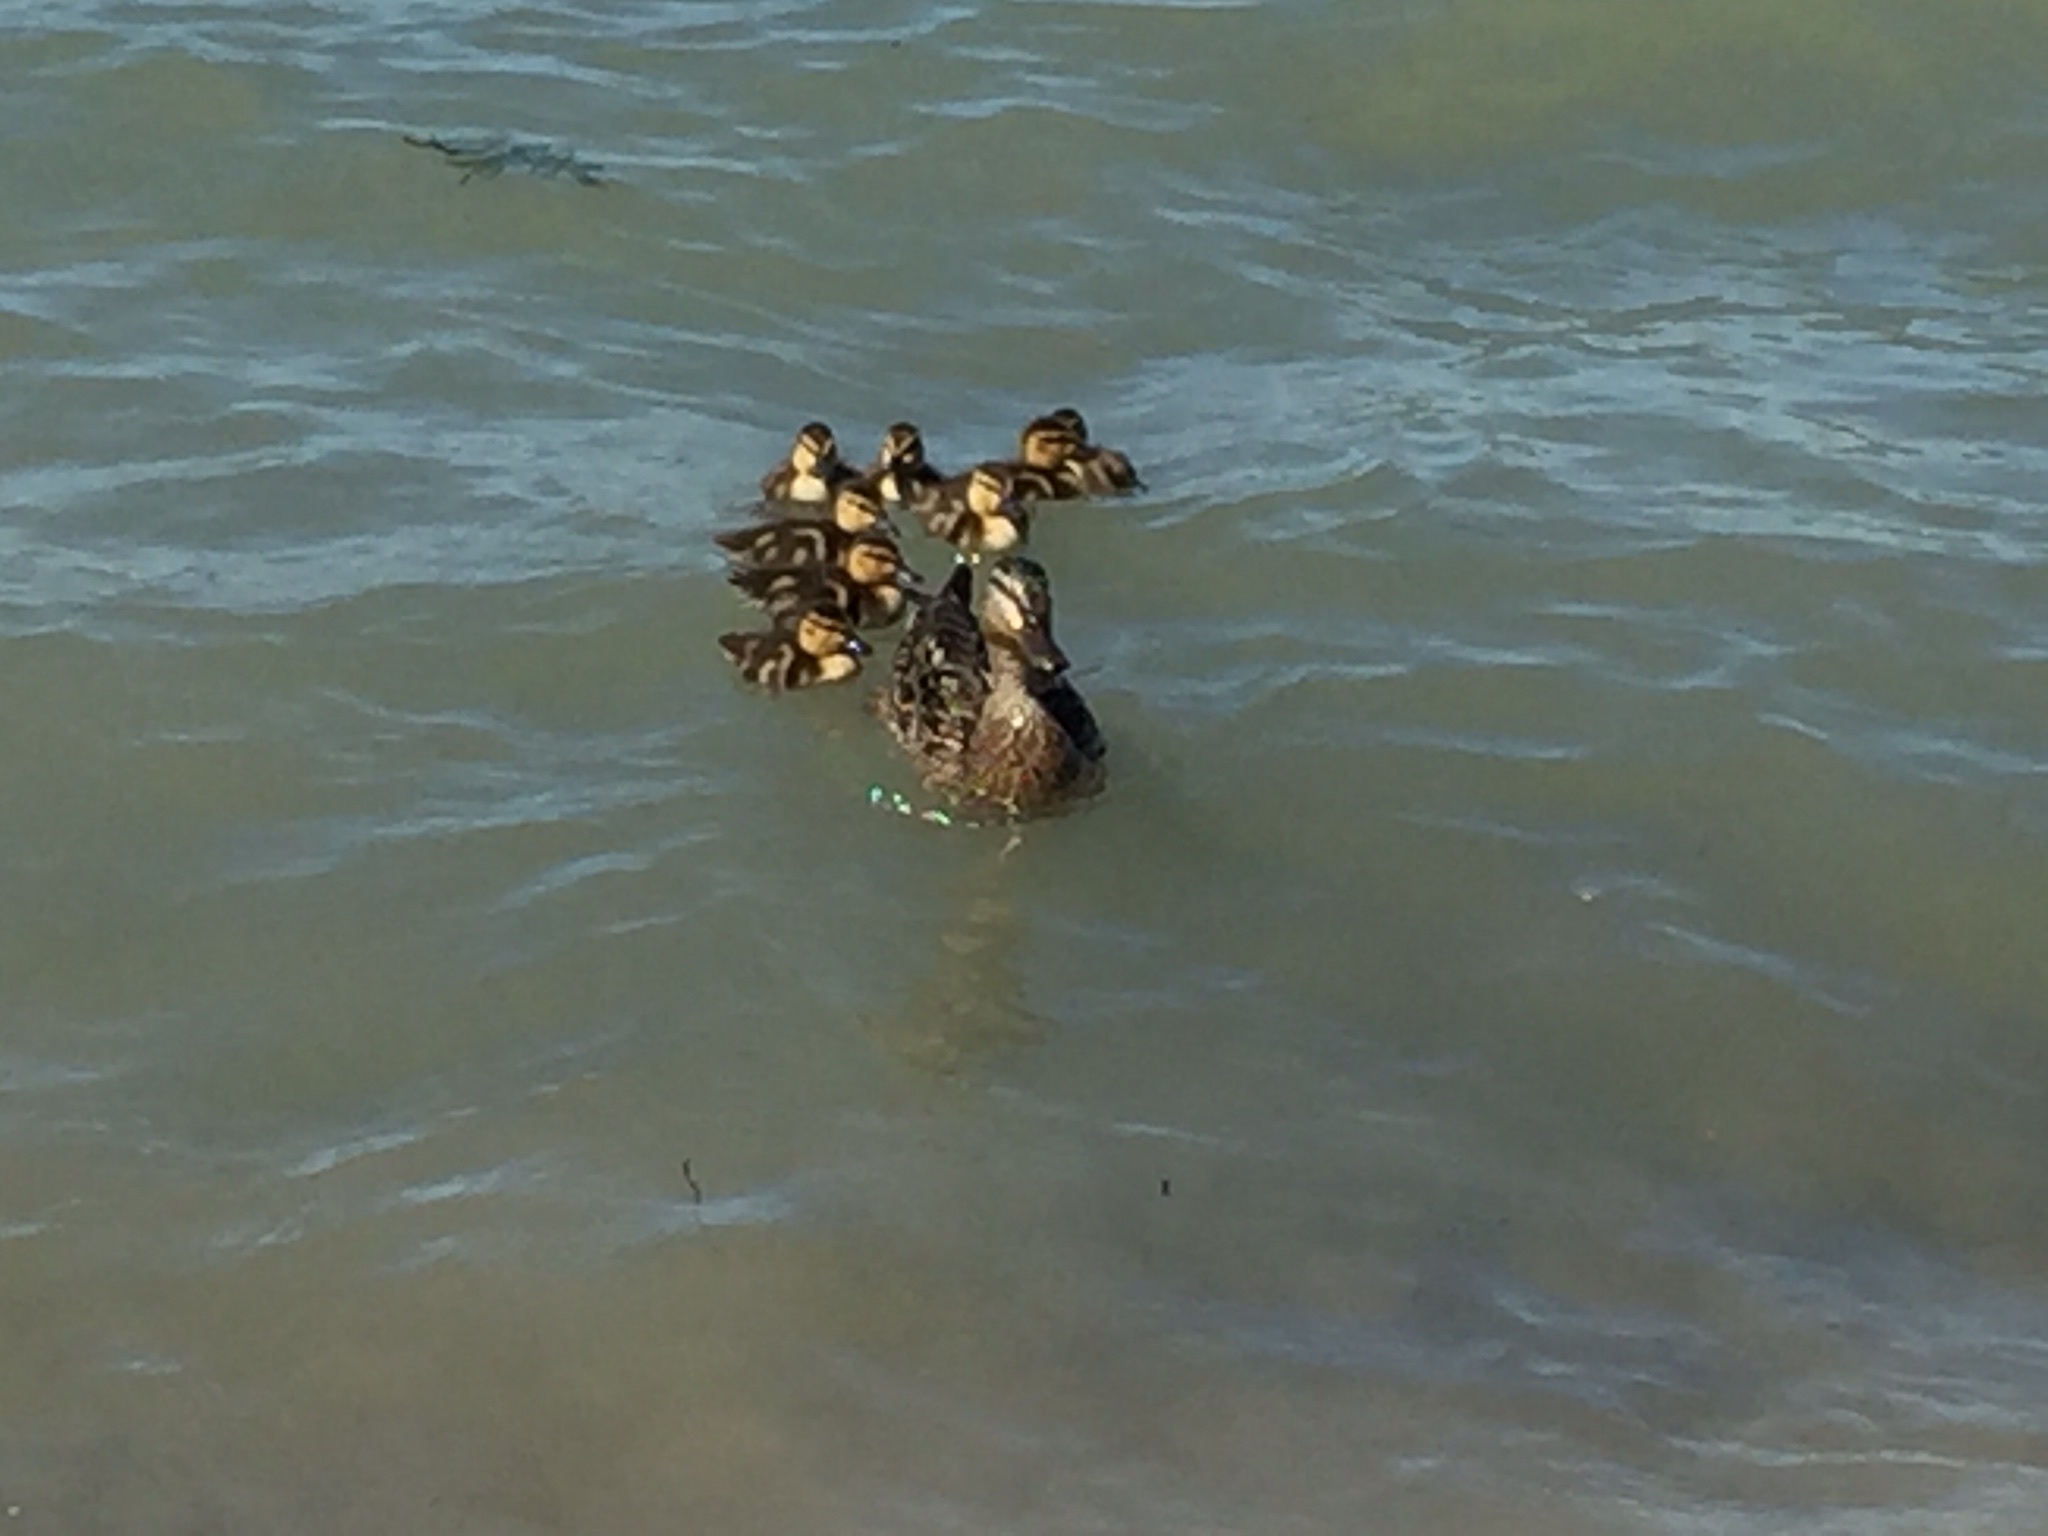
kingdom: Animalia
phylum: Chordata
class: Aves
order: Anseriformes
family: Anatidae
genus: Anas
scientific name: Anas platyrhynchos
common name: Mallard
